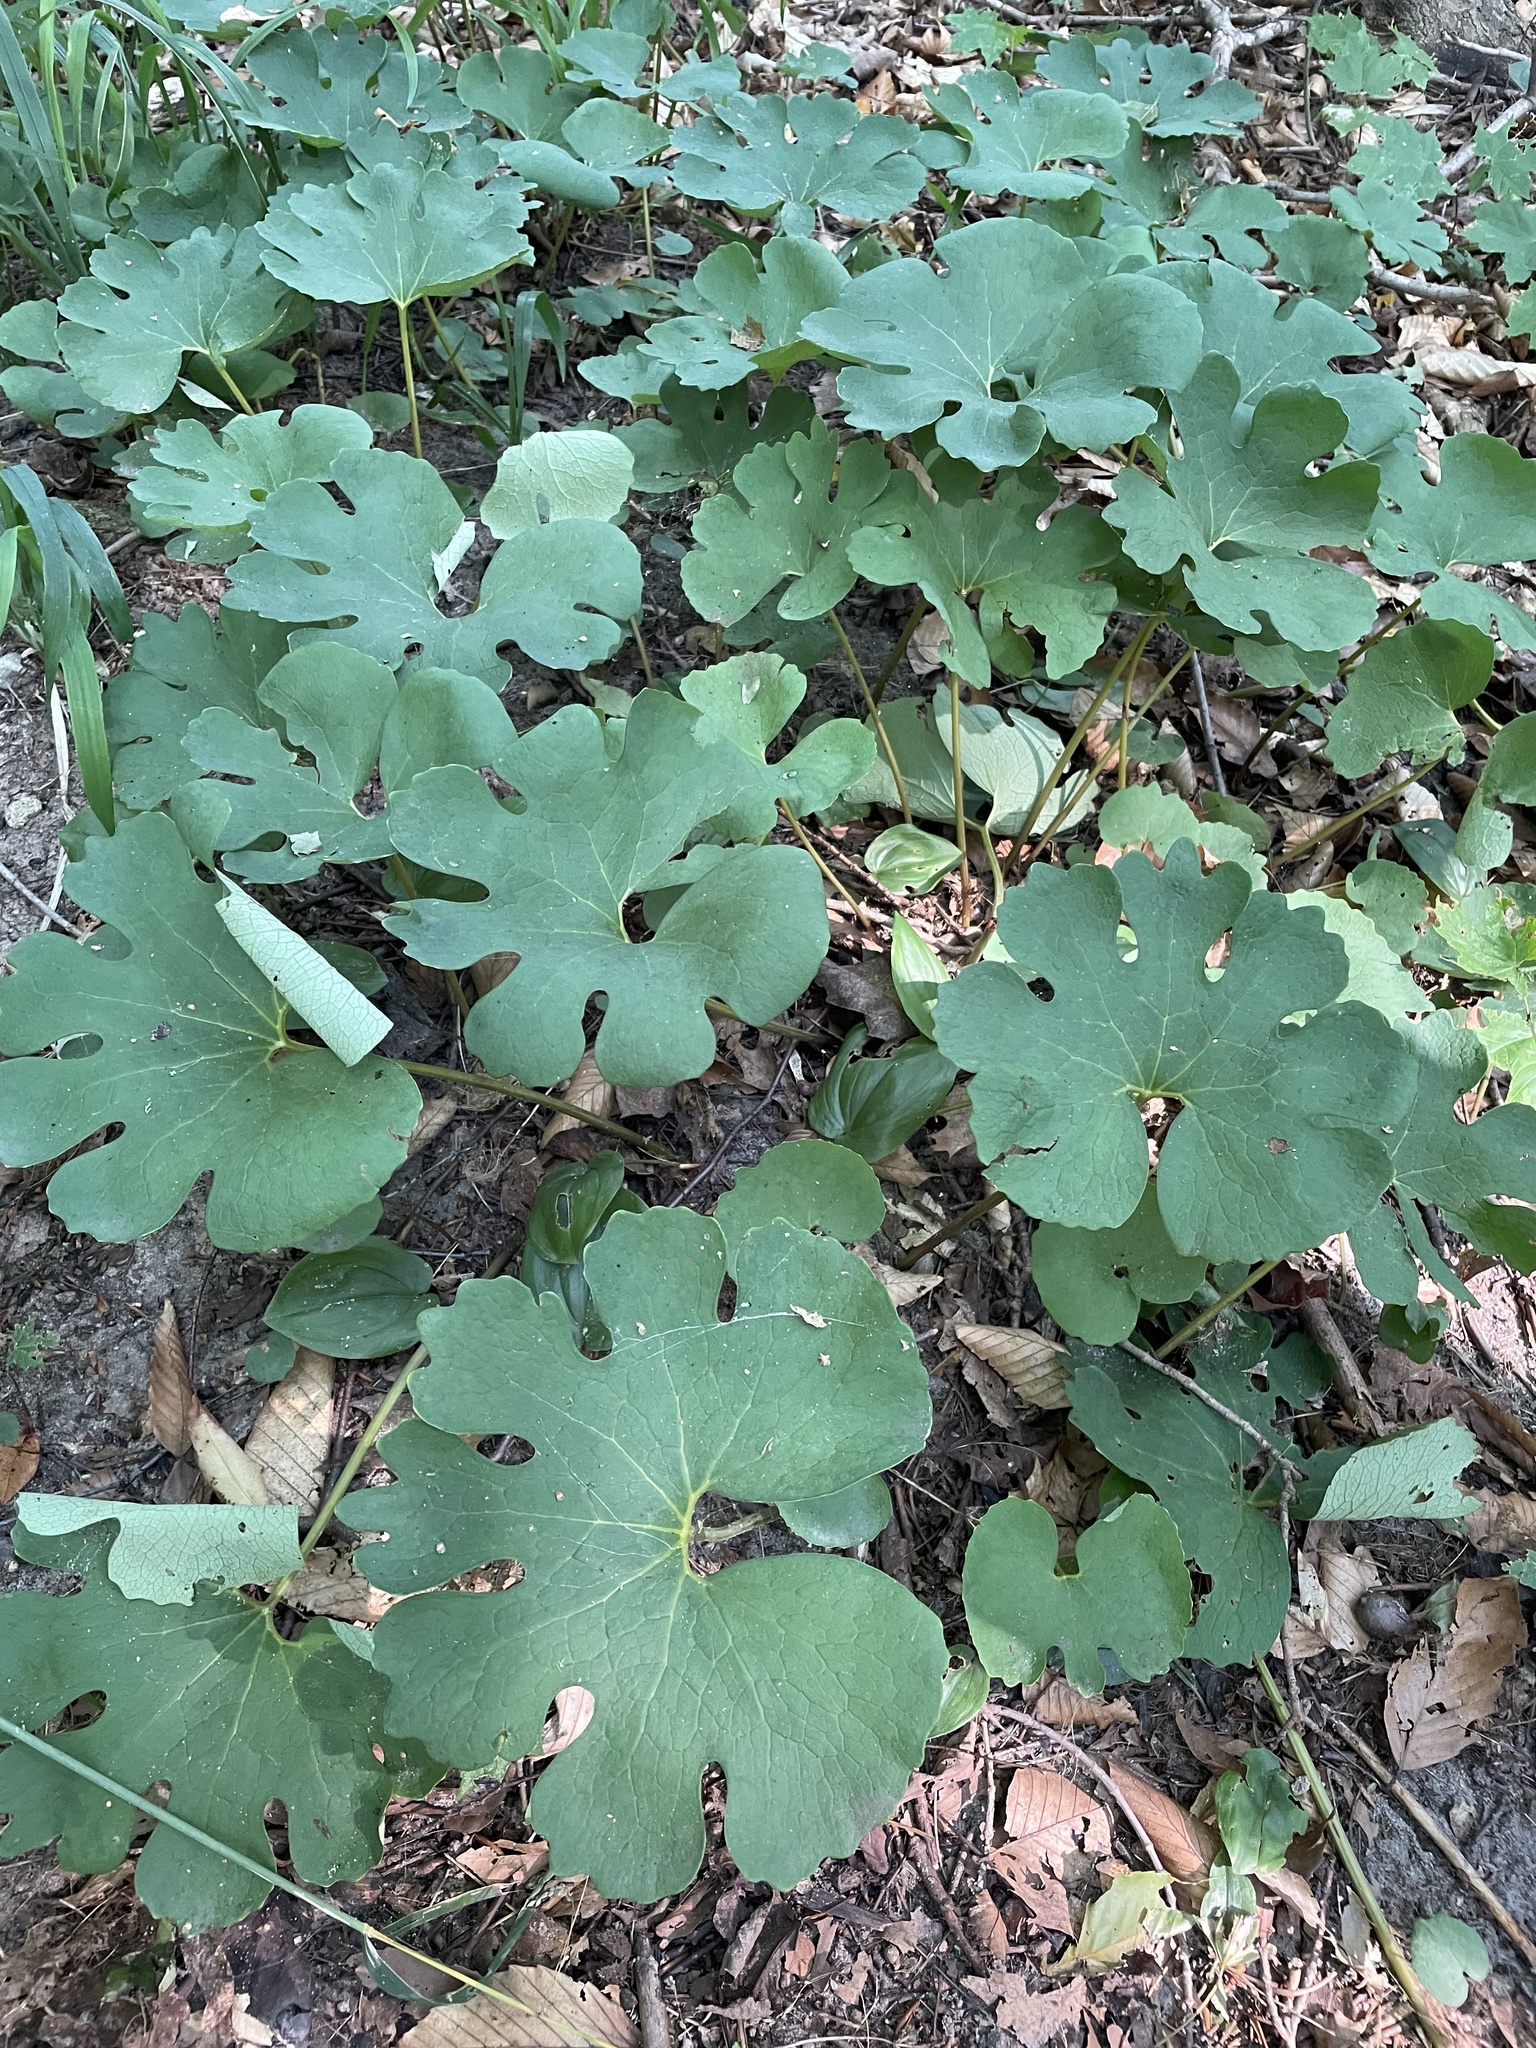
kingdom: Plantae
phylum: Tracheophyta
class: Magnoliopsida
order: Ranunculales
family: Papaveraceae
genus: Sanguinaria
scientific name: Sanguinaria canadensis
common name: Bloodroot
